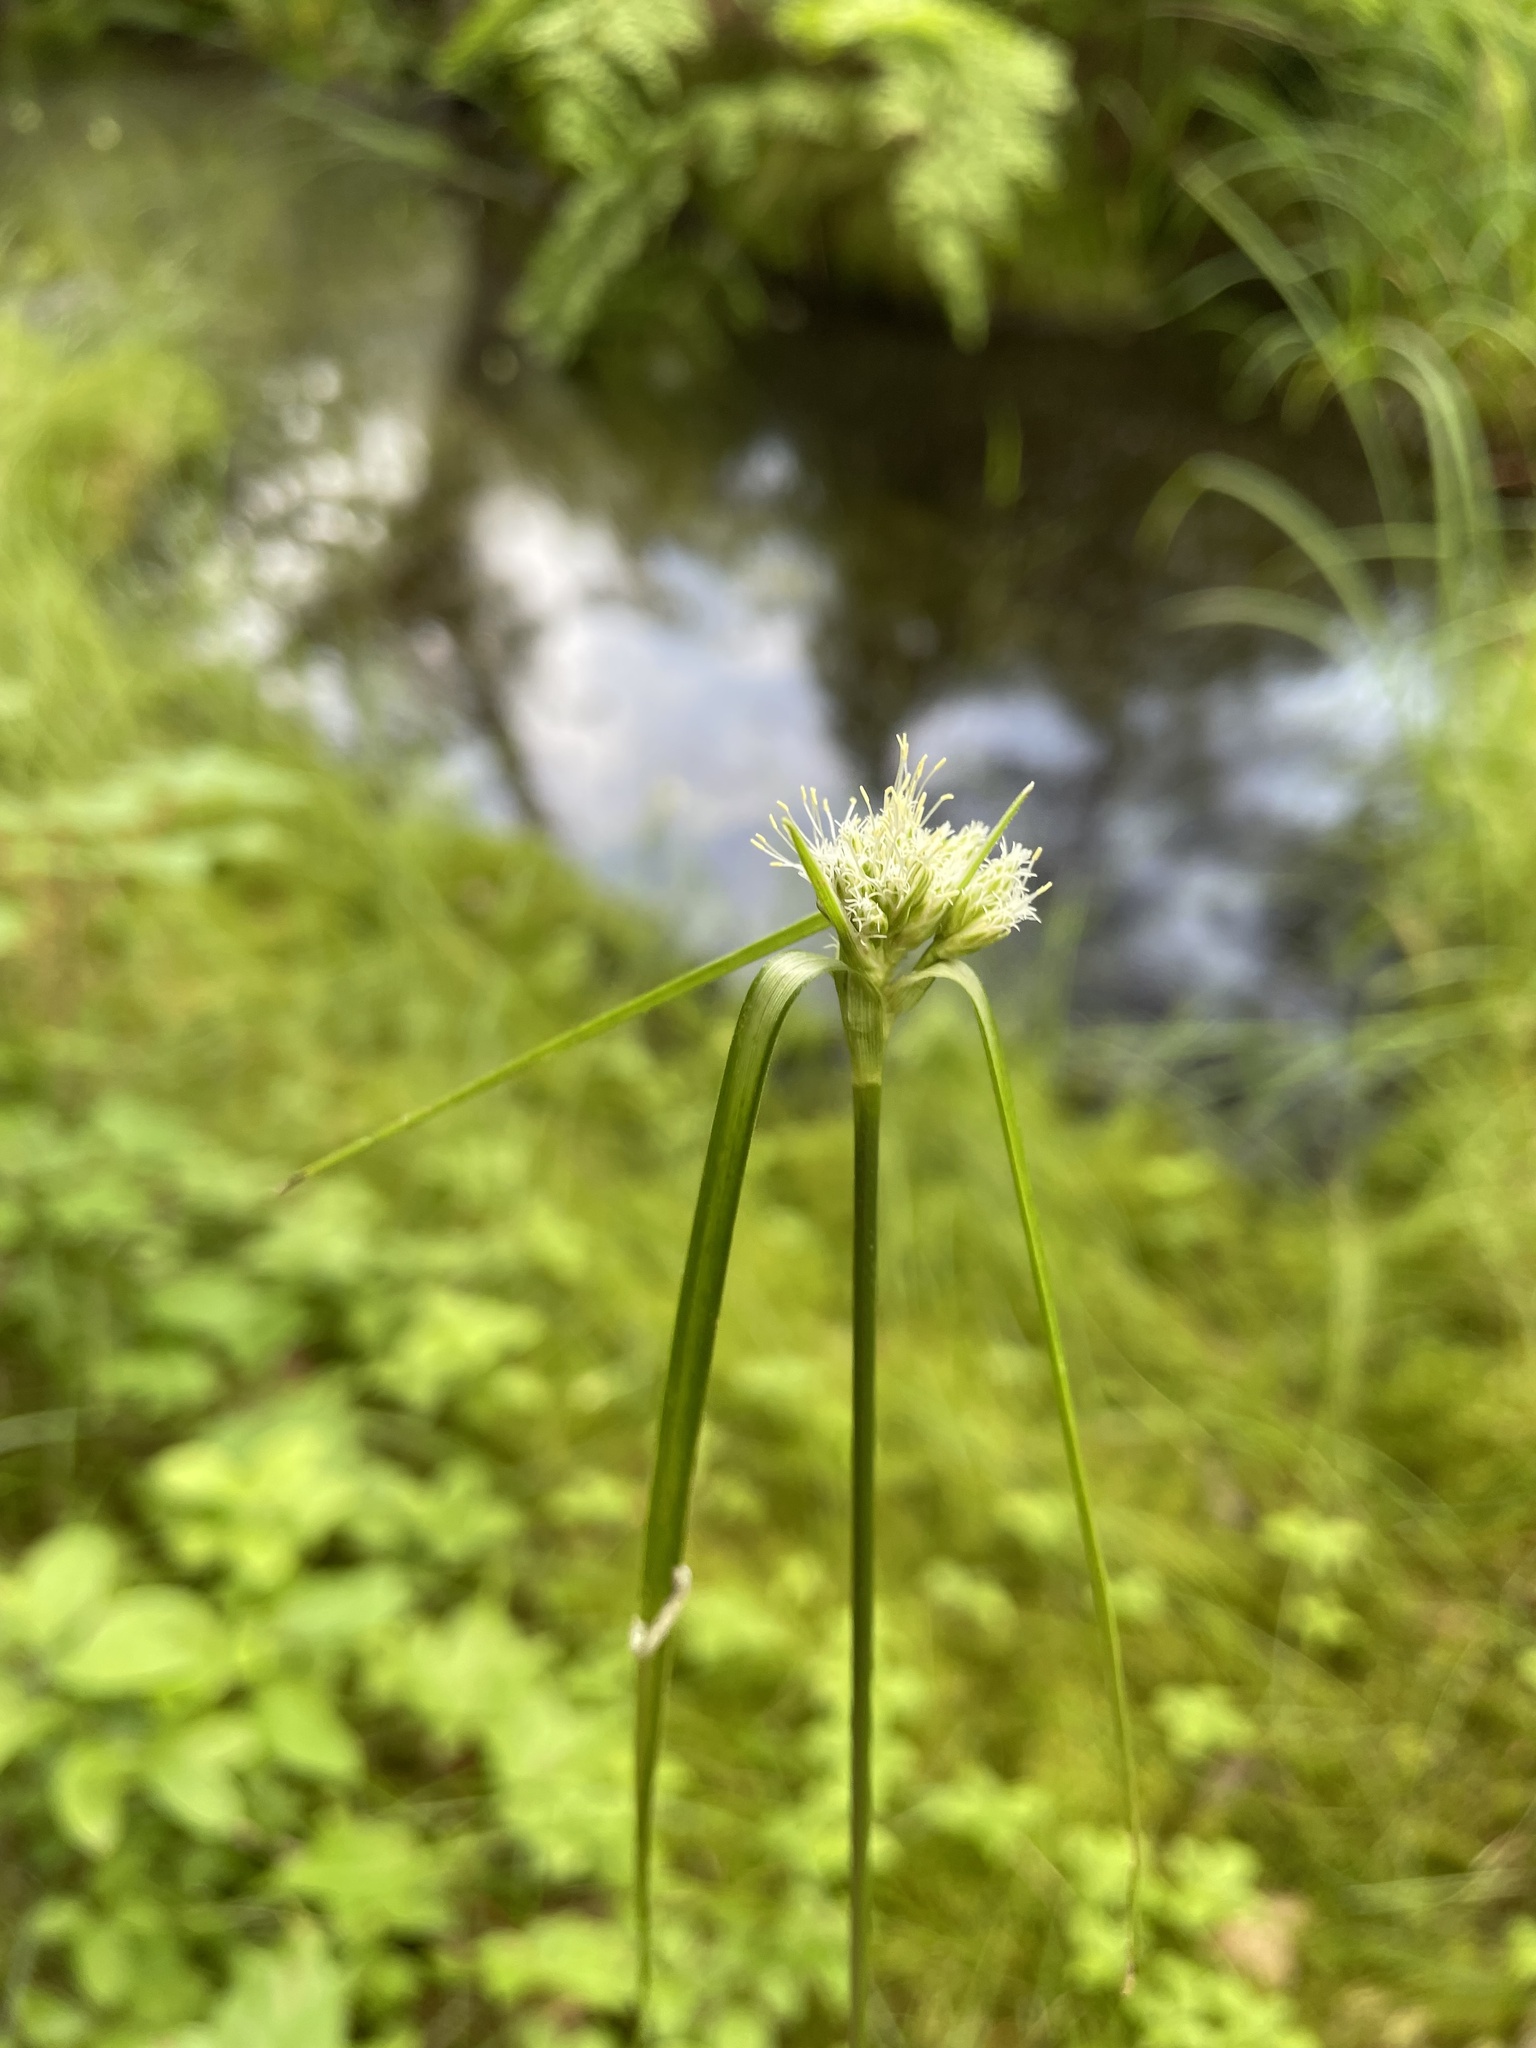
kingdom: Plantae
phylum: Tracheophyta
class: Liliopsida
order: Poales
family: Cyperaceae
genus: Eriophorum
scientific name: Eriophorum virginicum
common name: Tawny cottongrass
